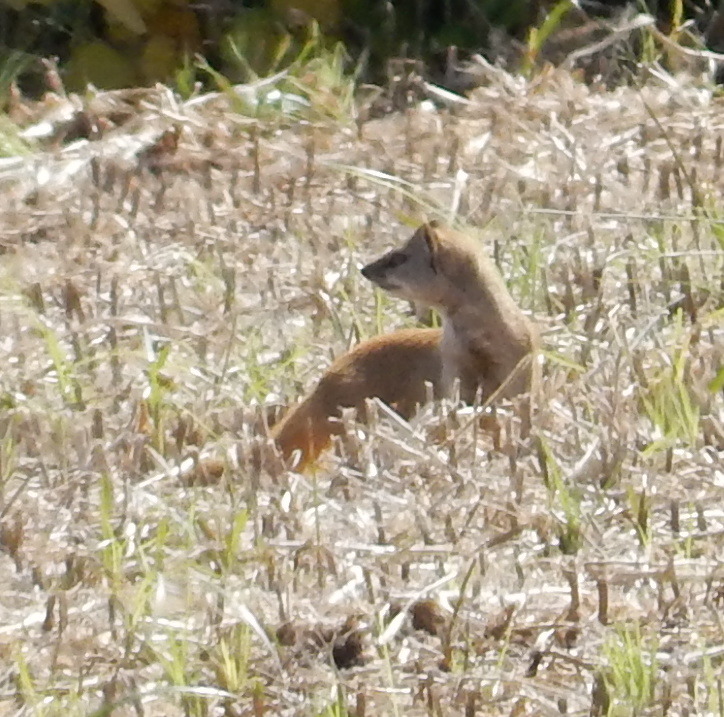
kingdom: Animalia
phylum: Chordata
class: Mammalia
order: Carnivora
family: Herpestidae
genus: Cynictis
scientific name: Cynictis penicillata
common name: Yellow mongoose
